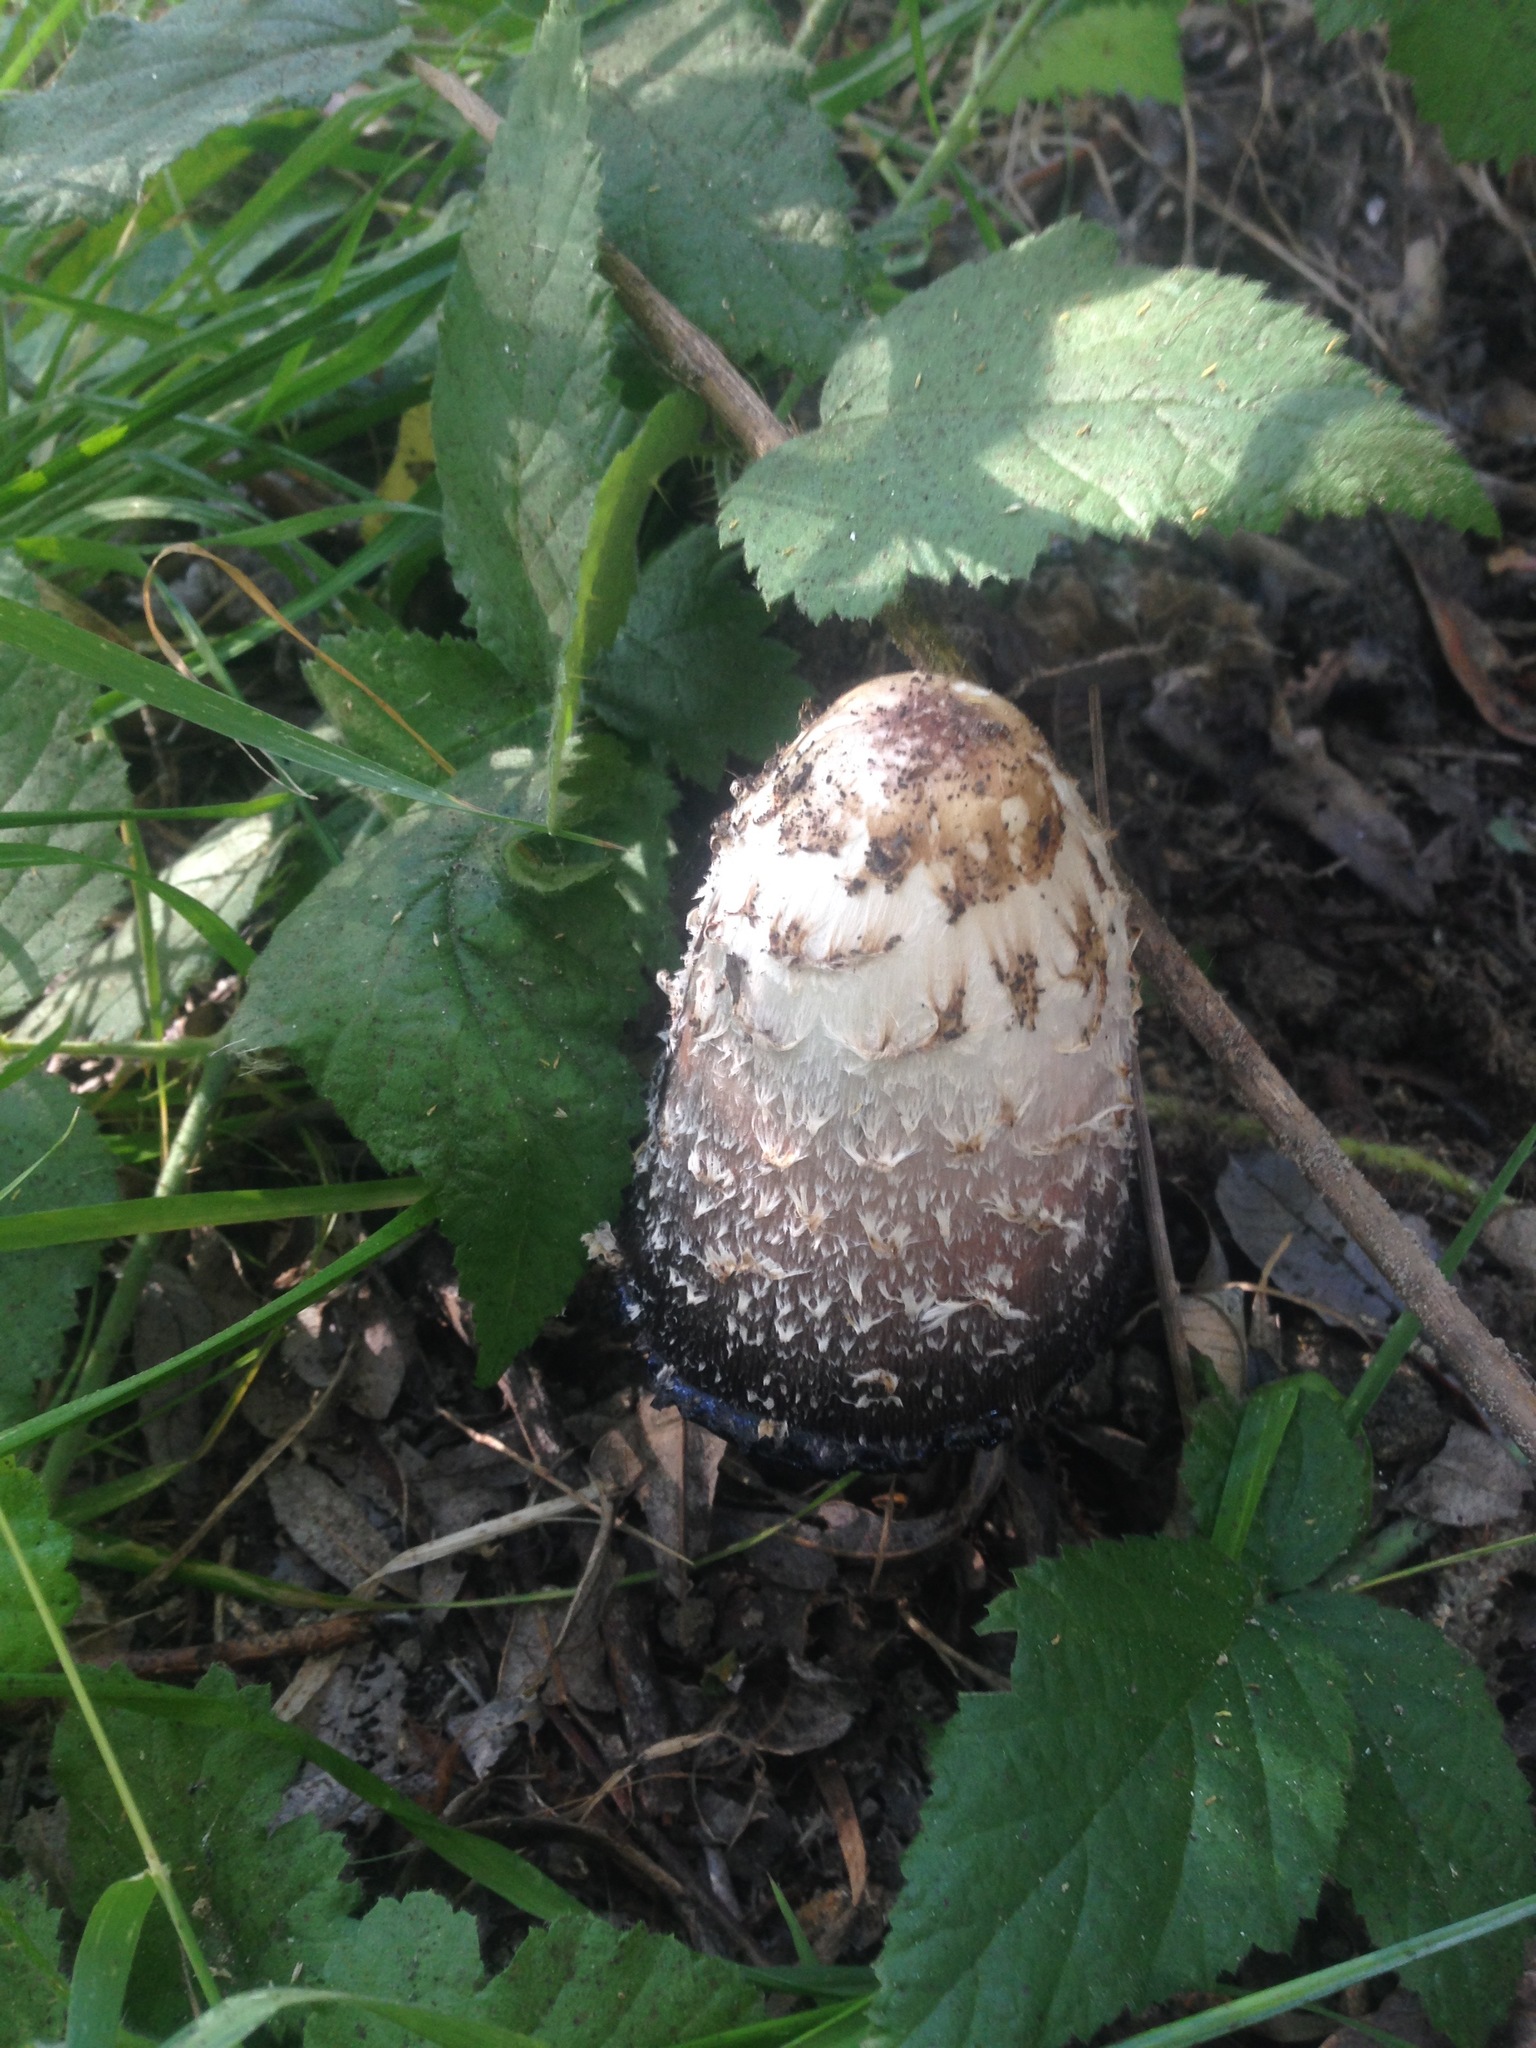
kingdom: Fungi
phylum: Basidiomycota
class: Agaricomycetes
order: Agaricales
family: Agaricaceae
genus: Coprinus
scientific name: Coprinus comatus
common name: Lawyer's wig
